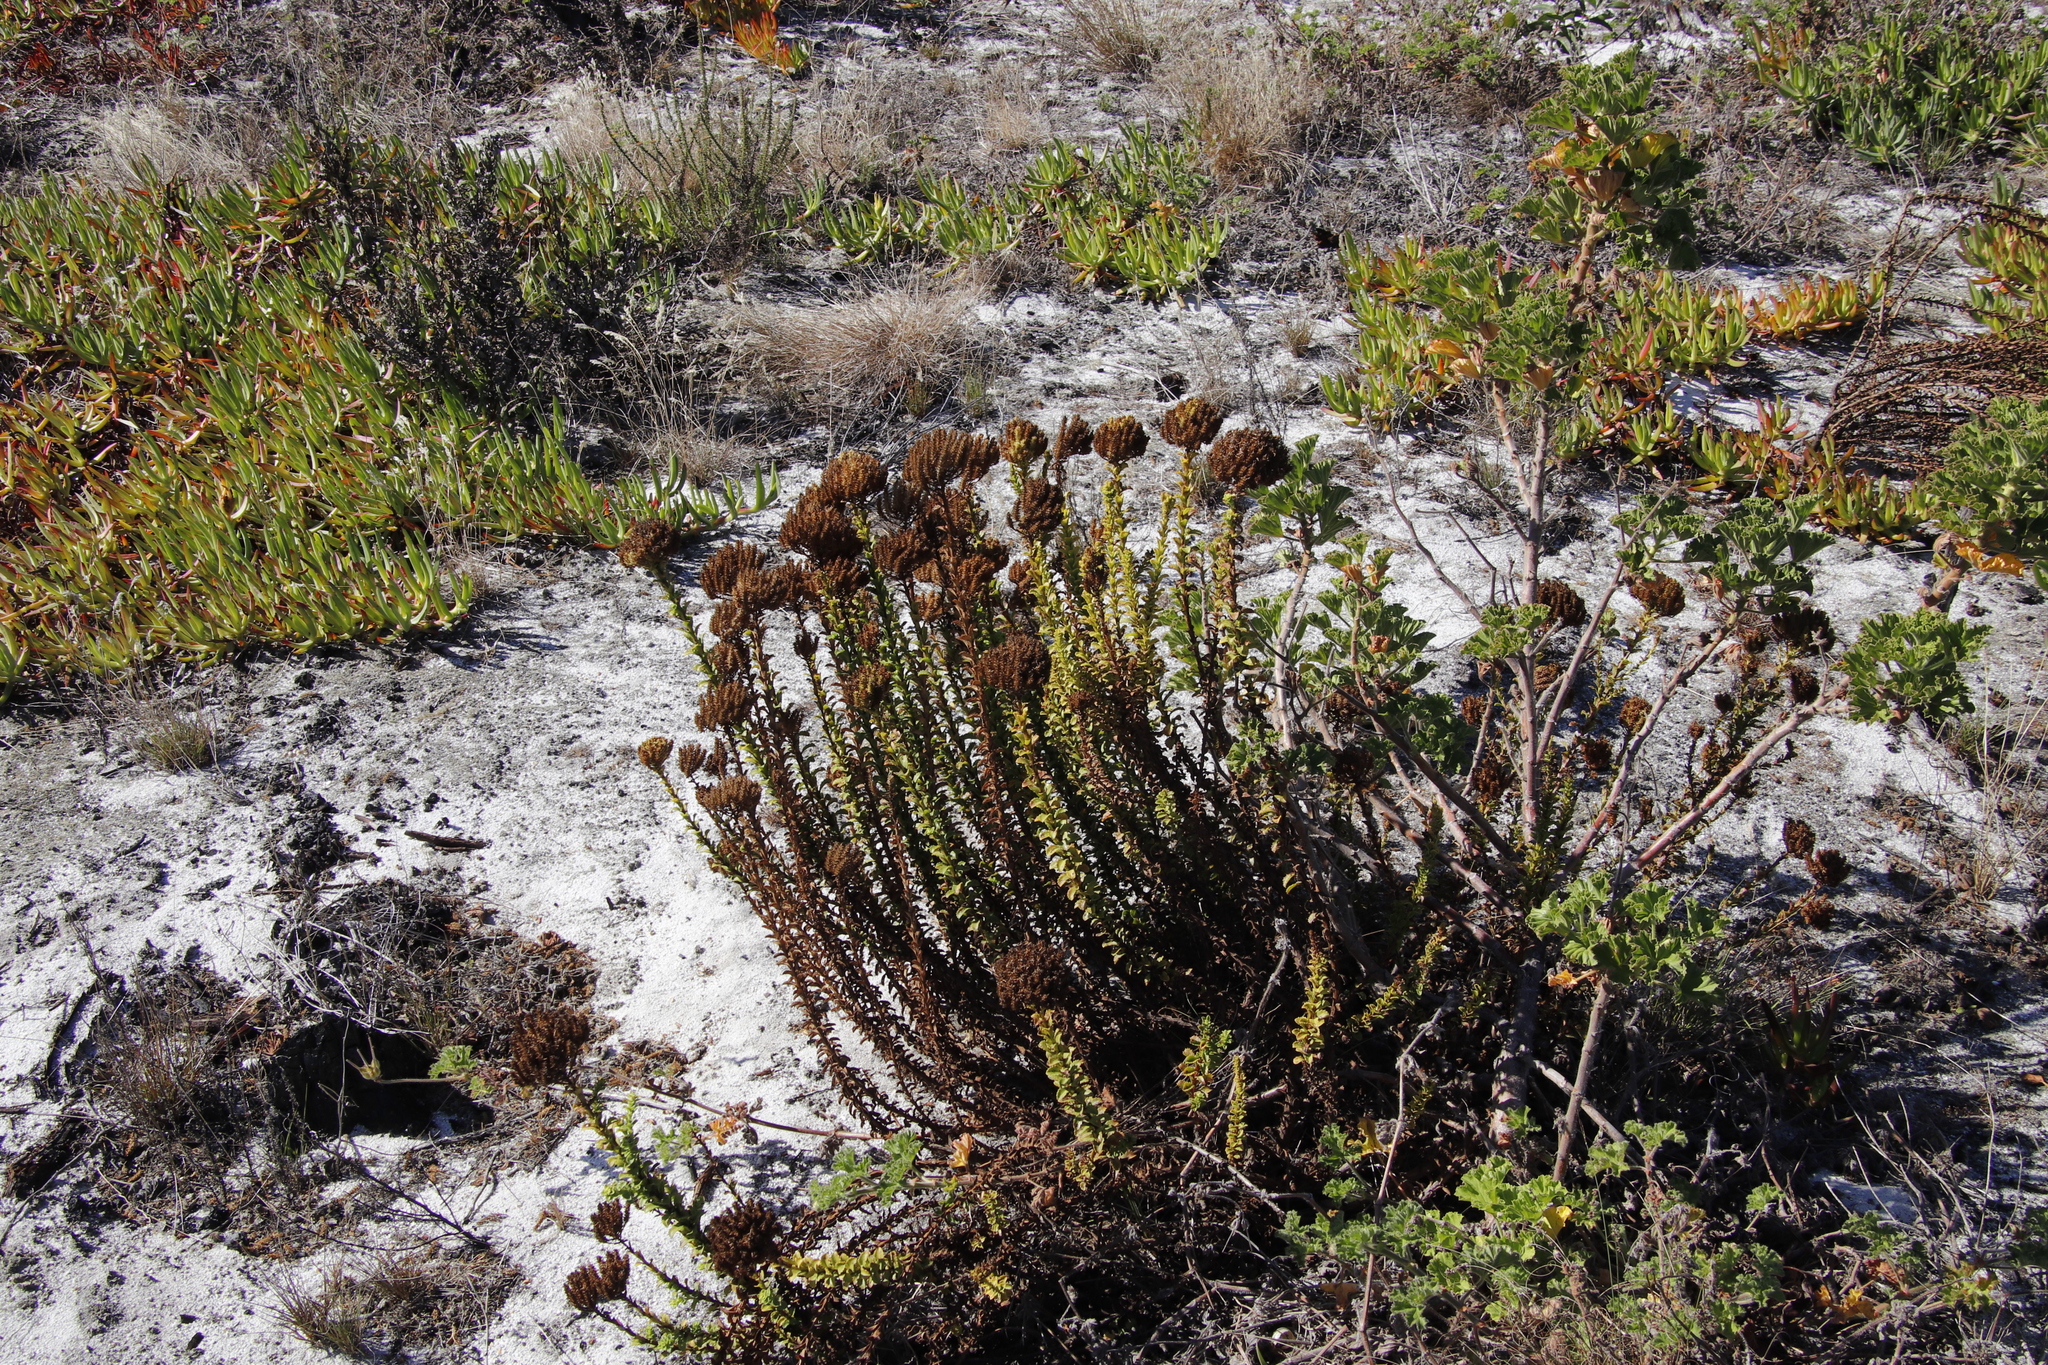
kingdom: Plantae
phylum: Tracheophyta
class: Magnoliopsida
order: Lamiales
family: Scrophulariaceae
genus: Pseudoselago
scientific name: Pseudoselago serrata
